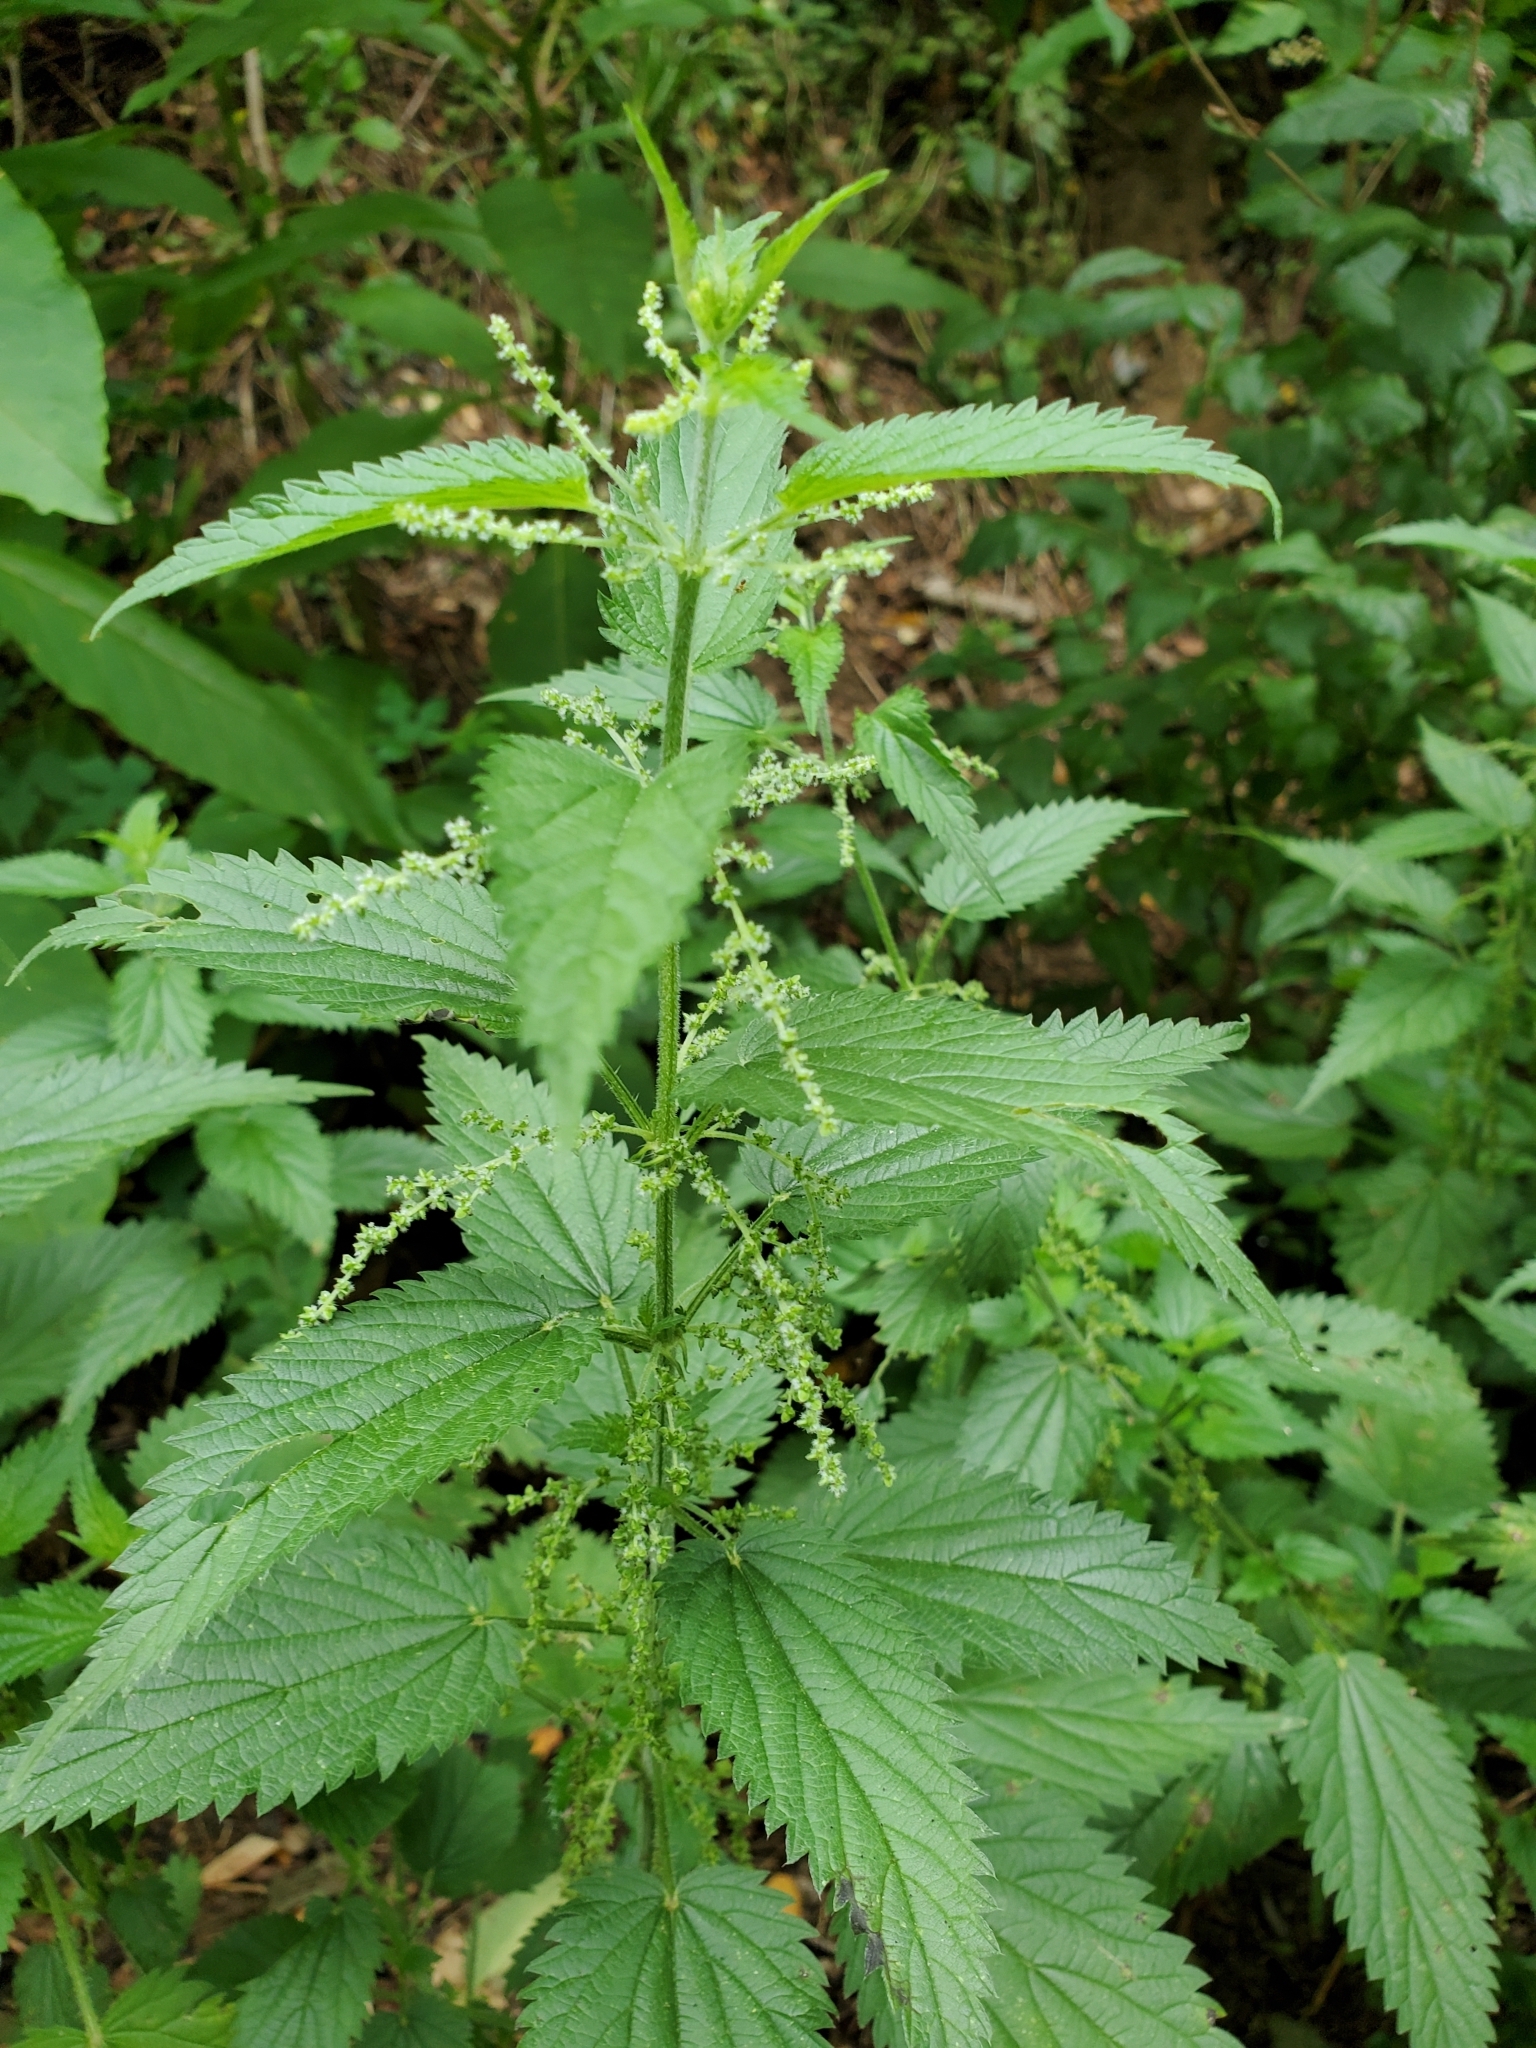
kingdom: Plantae
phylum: Tracheophyta
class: Magnoliopsida
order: Rosales
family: Urticaceae
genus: Urtica
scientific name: Urtica dioica
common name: Common nettle
